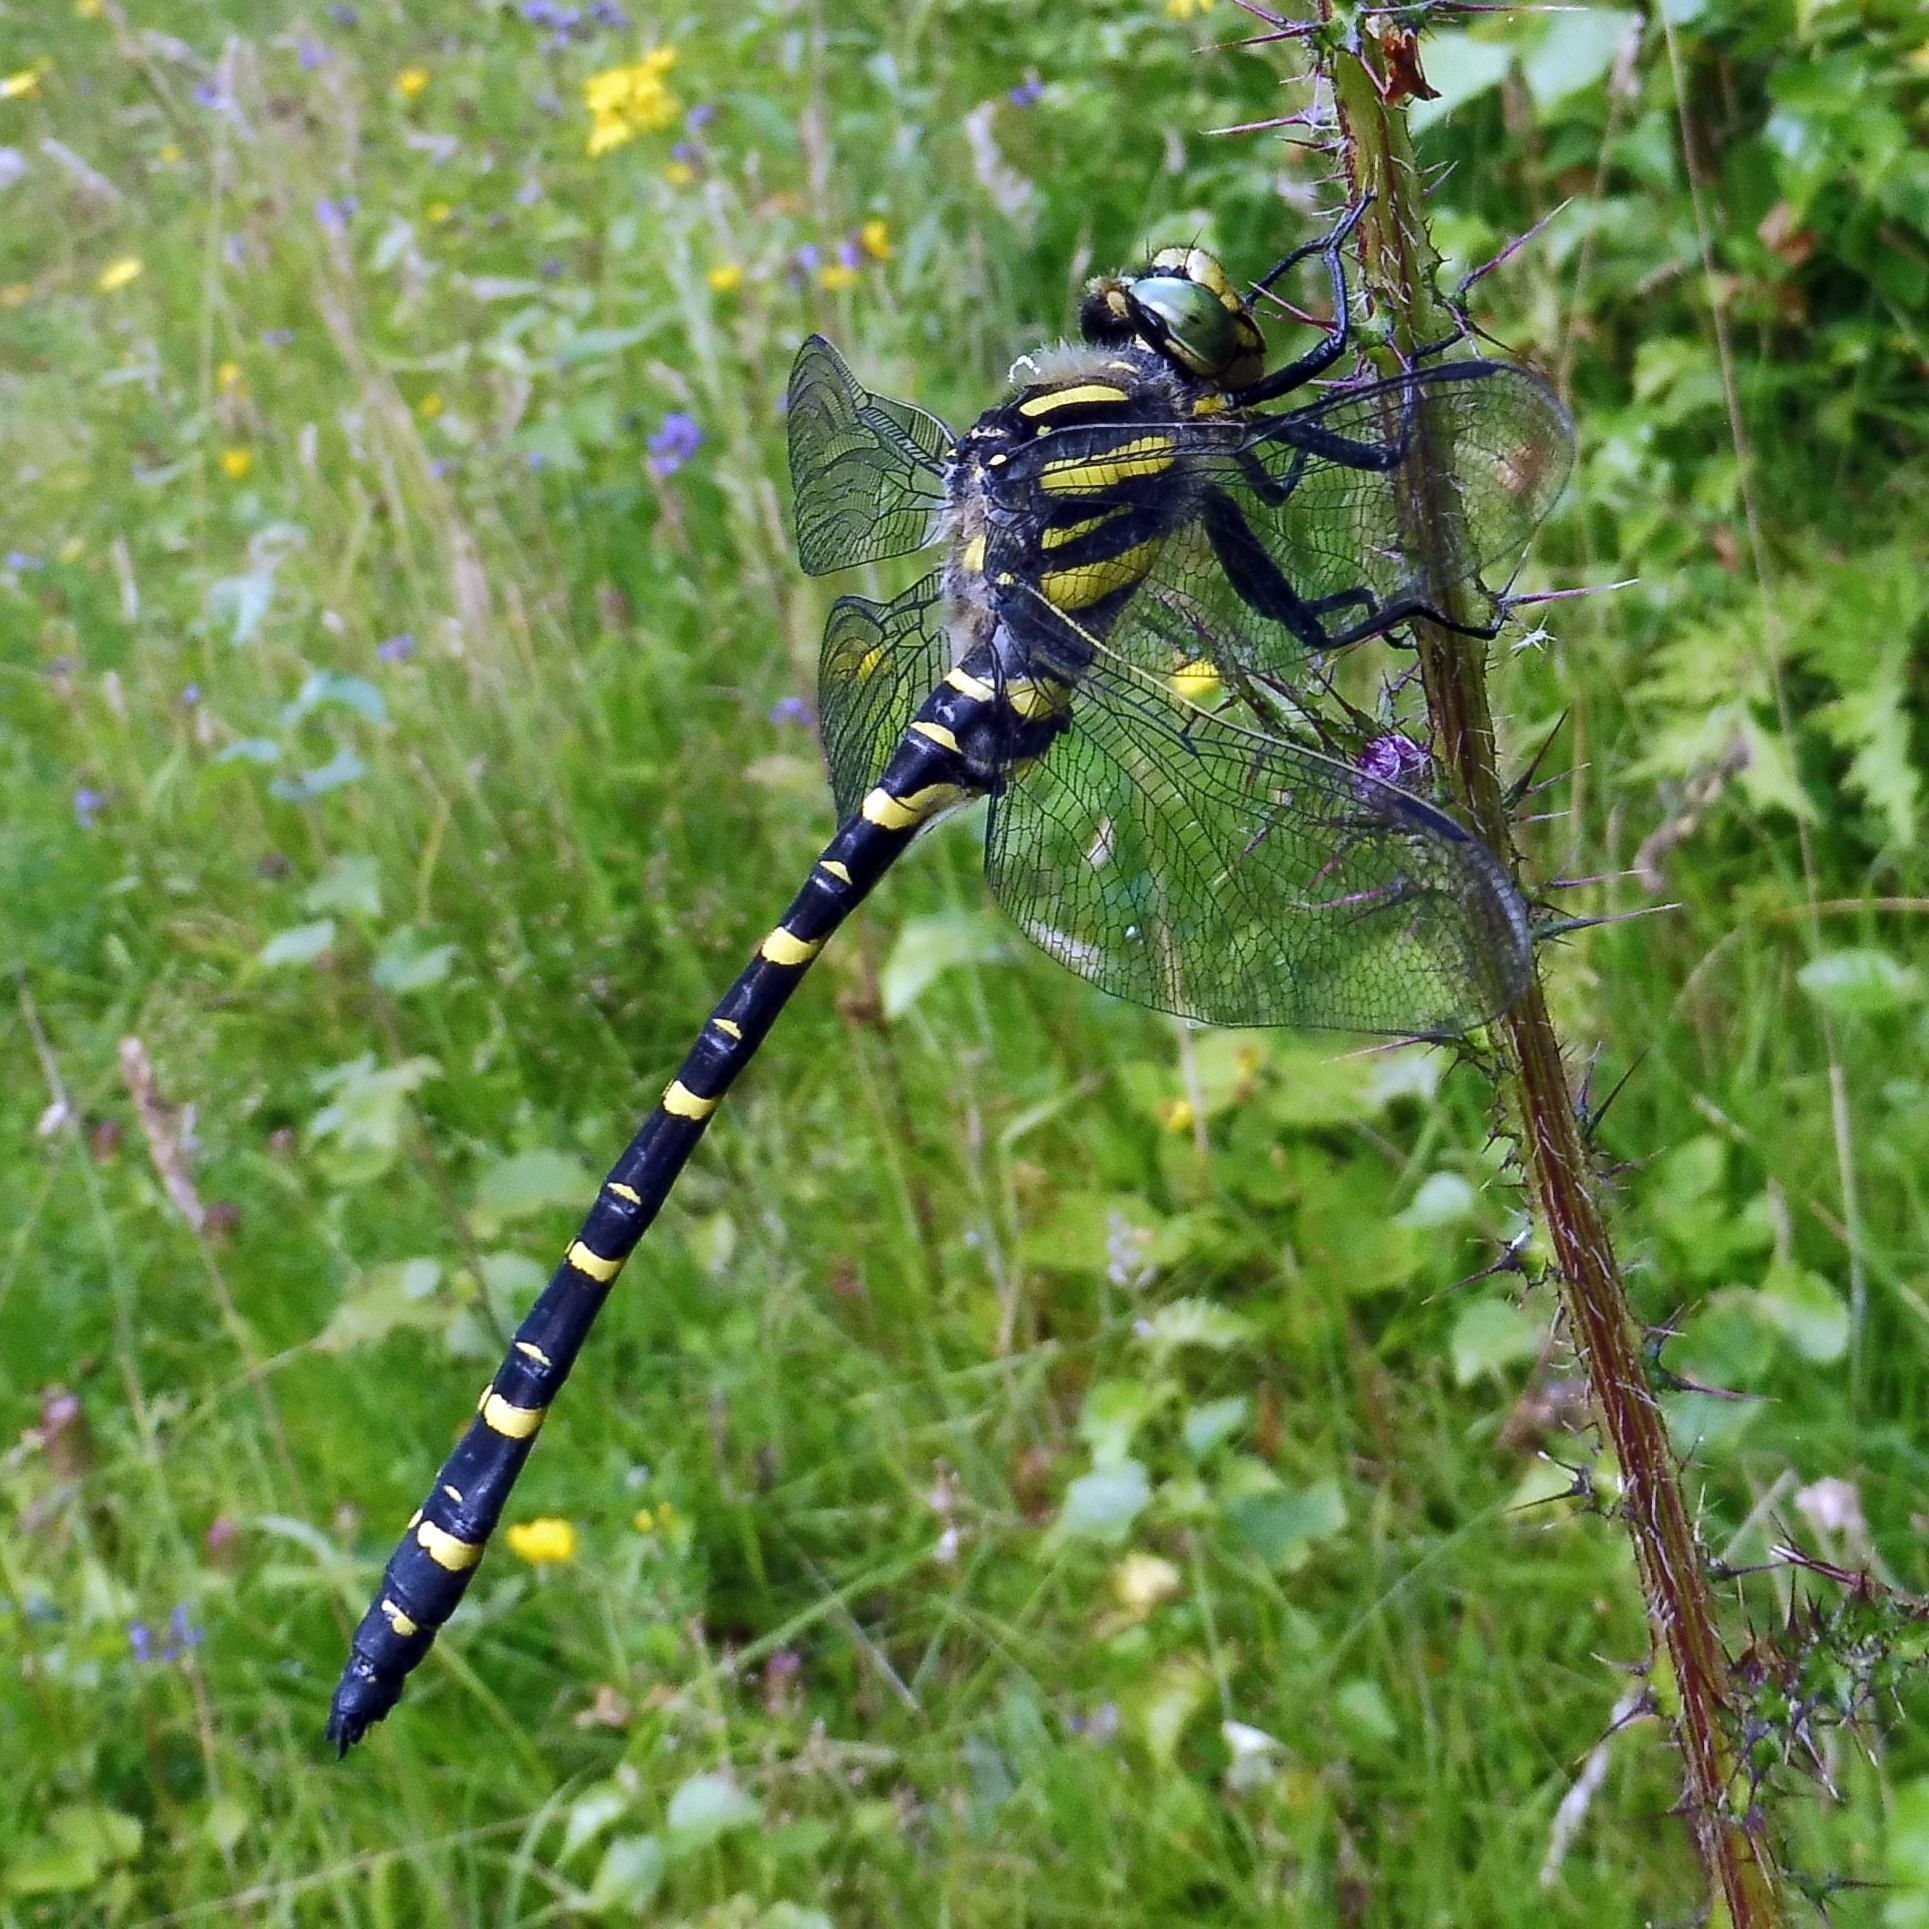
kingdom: Animalia
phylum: Arthropoda
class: Insecta
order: Odonata
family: Cordulegastridae
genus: Cordulegaster
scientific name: Cordulegaster boltonii
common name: Golden-ringed dragonfly
